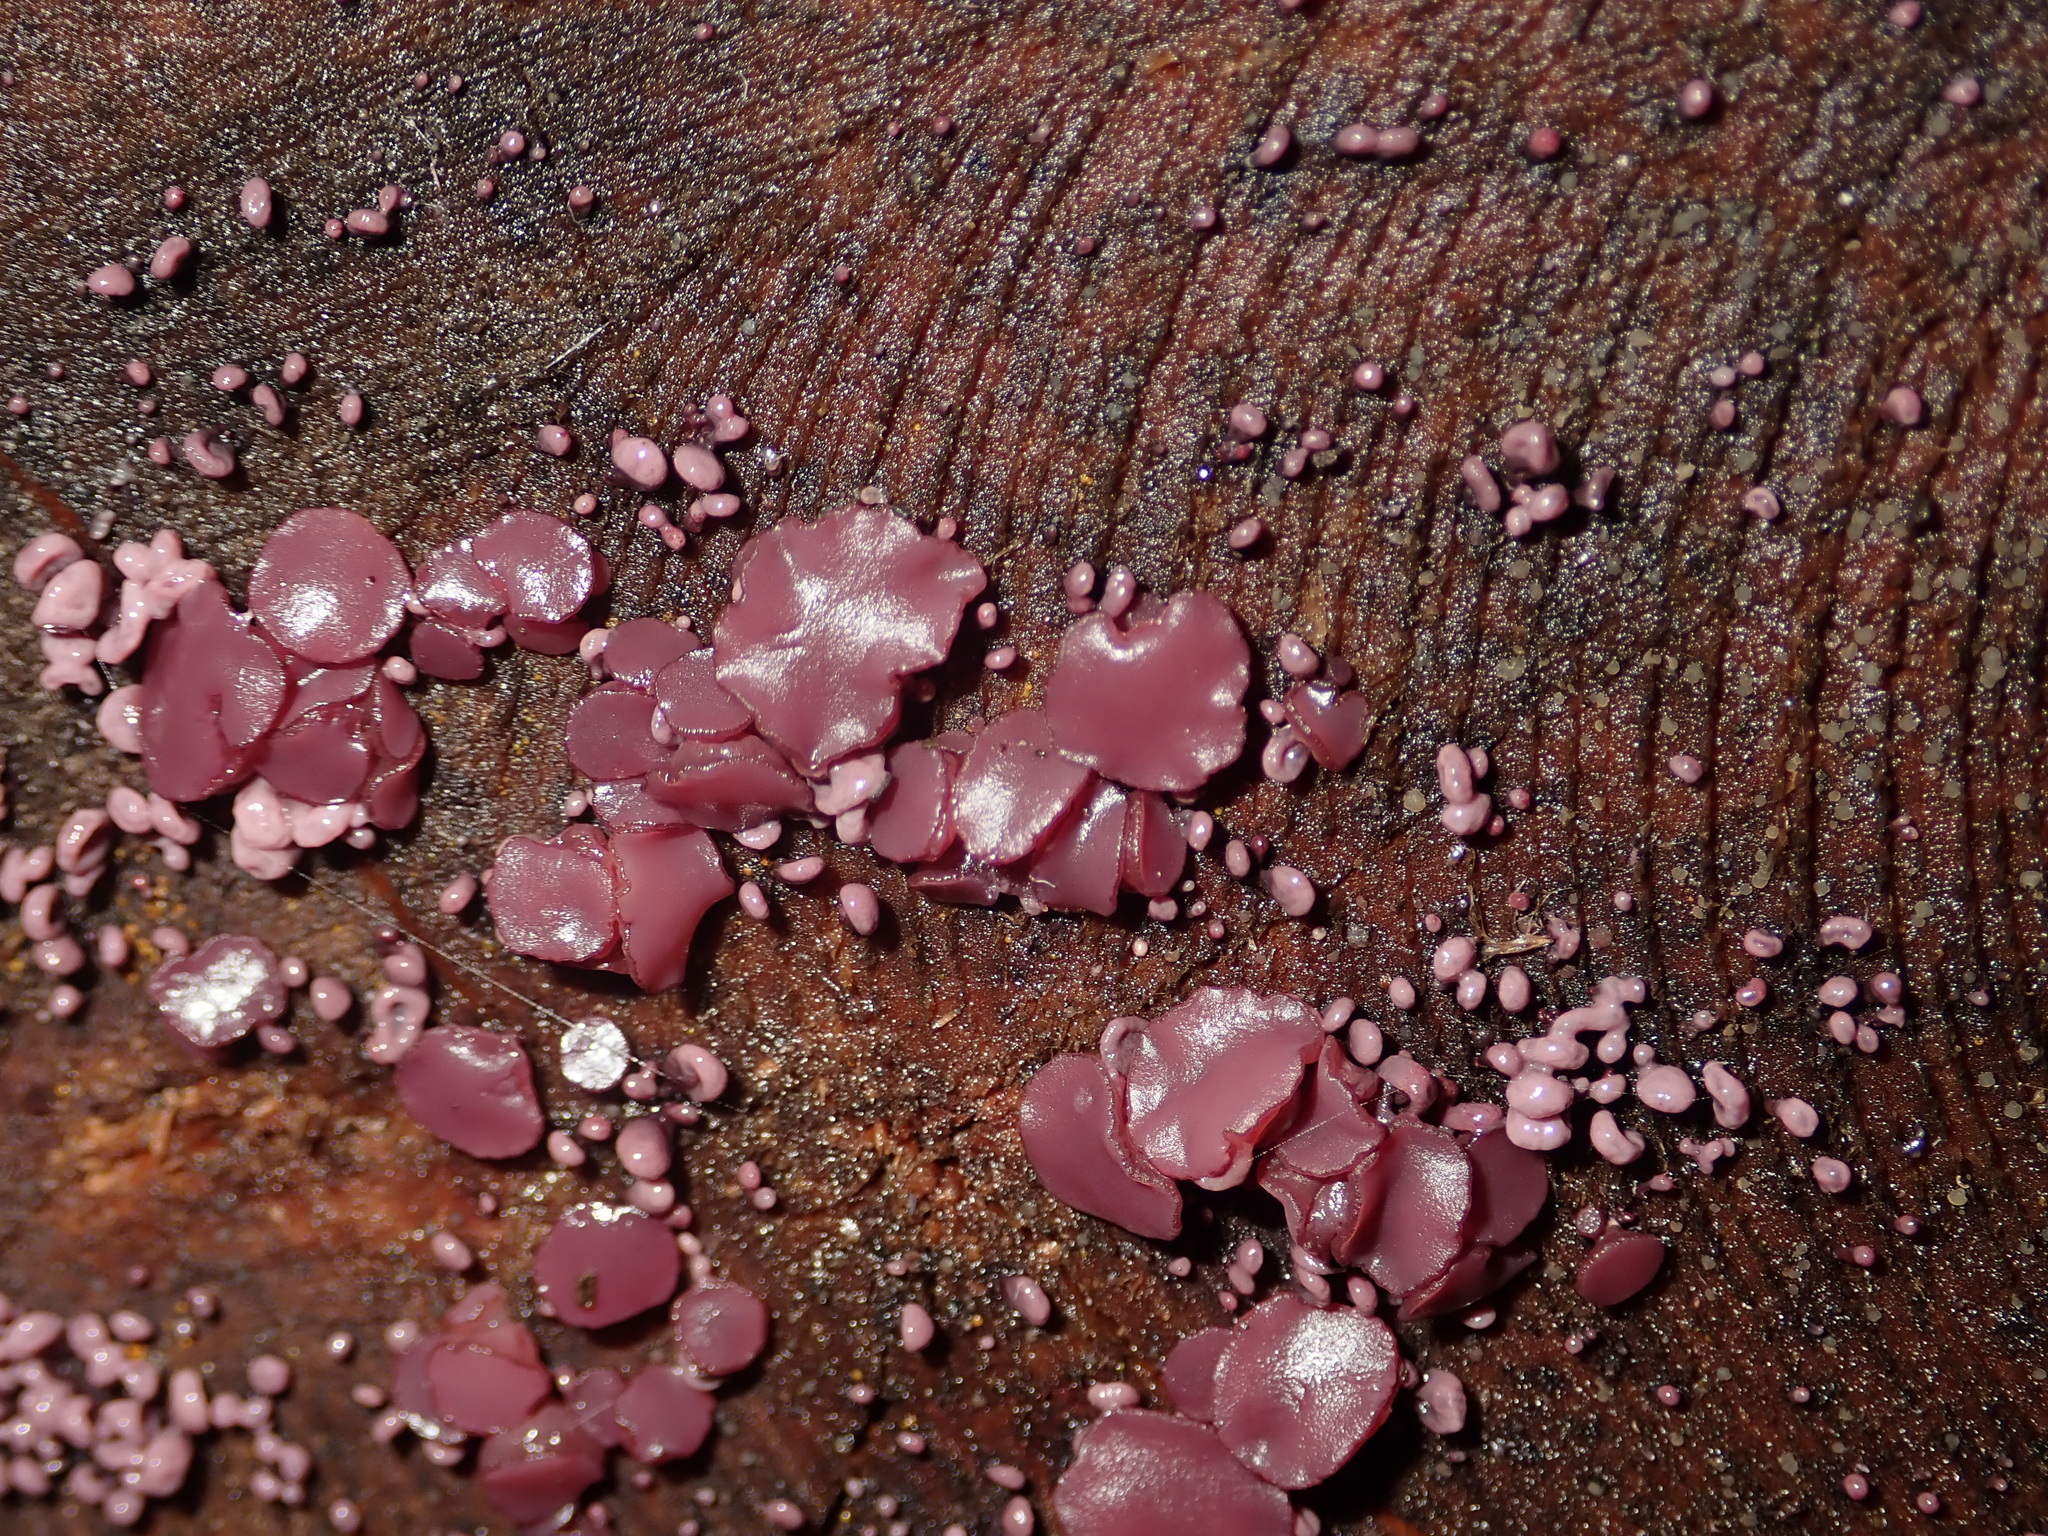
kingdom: Fungi
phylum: Ascomycota
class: Leotiomycetes
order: Helotiales
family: Gelatinodiscaceae
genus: Ascocoryne
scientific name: Ascocoryne sarcoides
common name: Purple jellydisc
